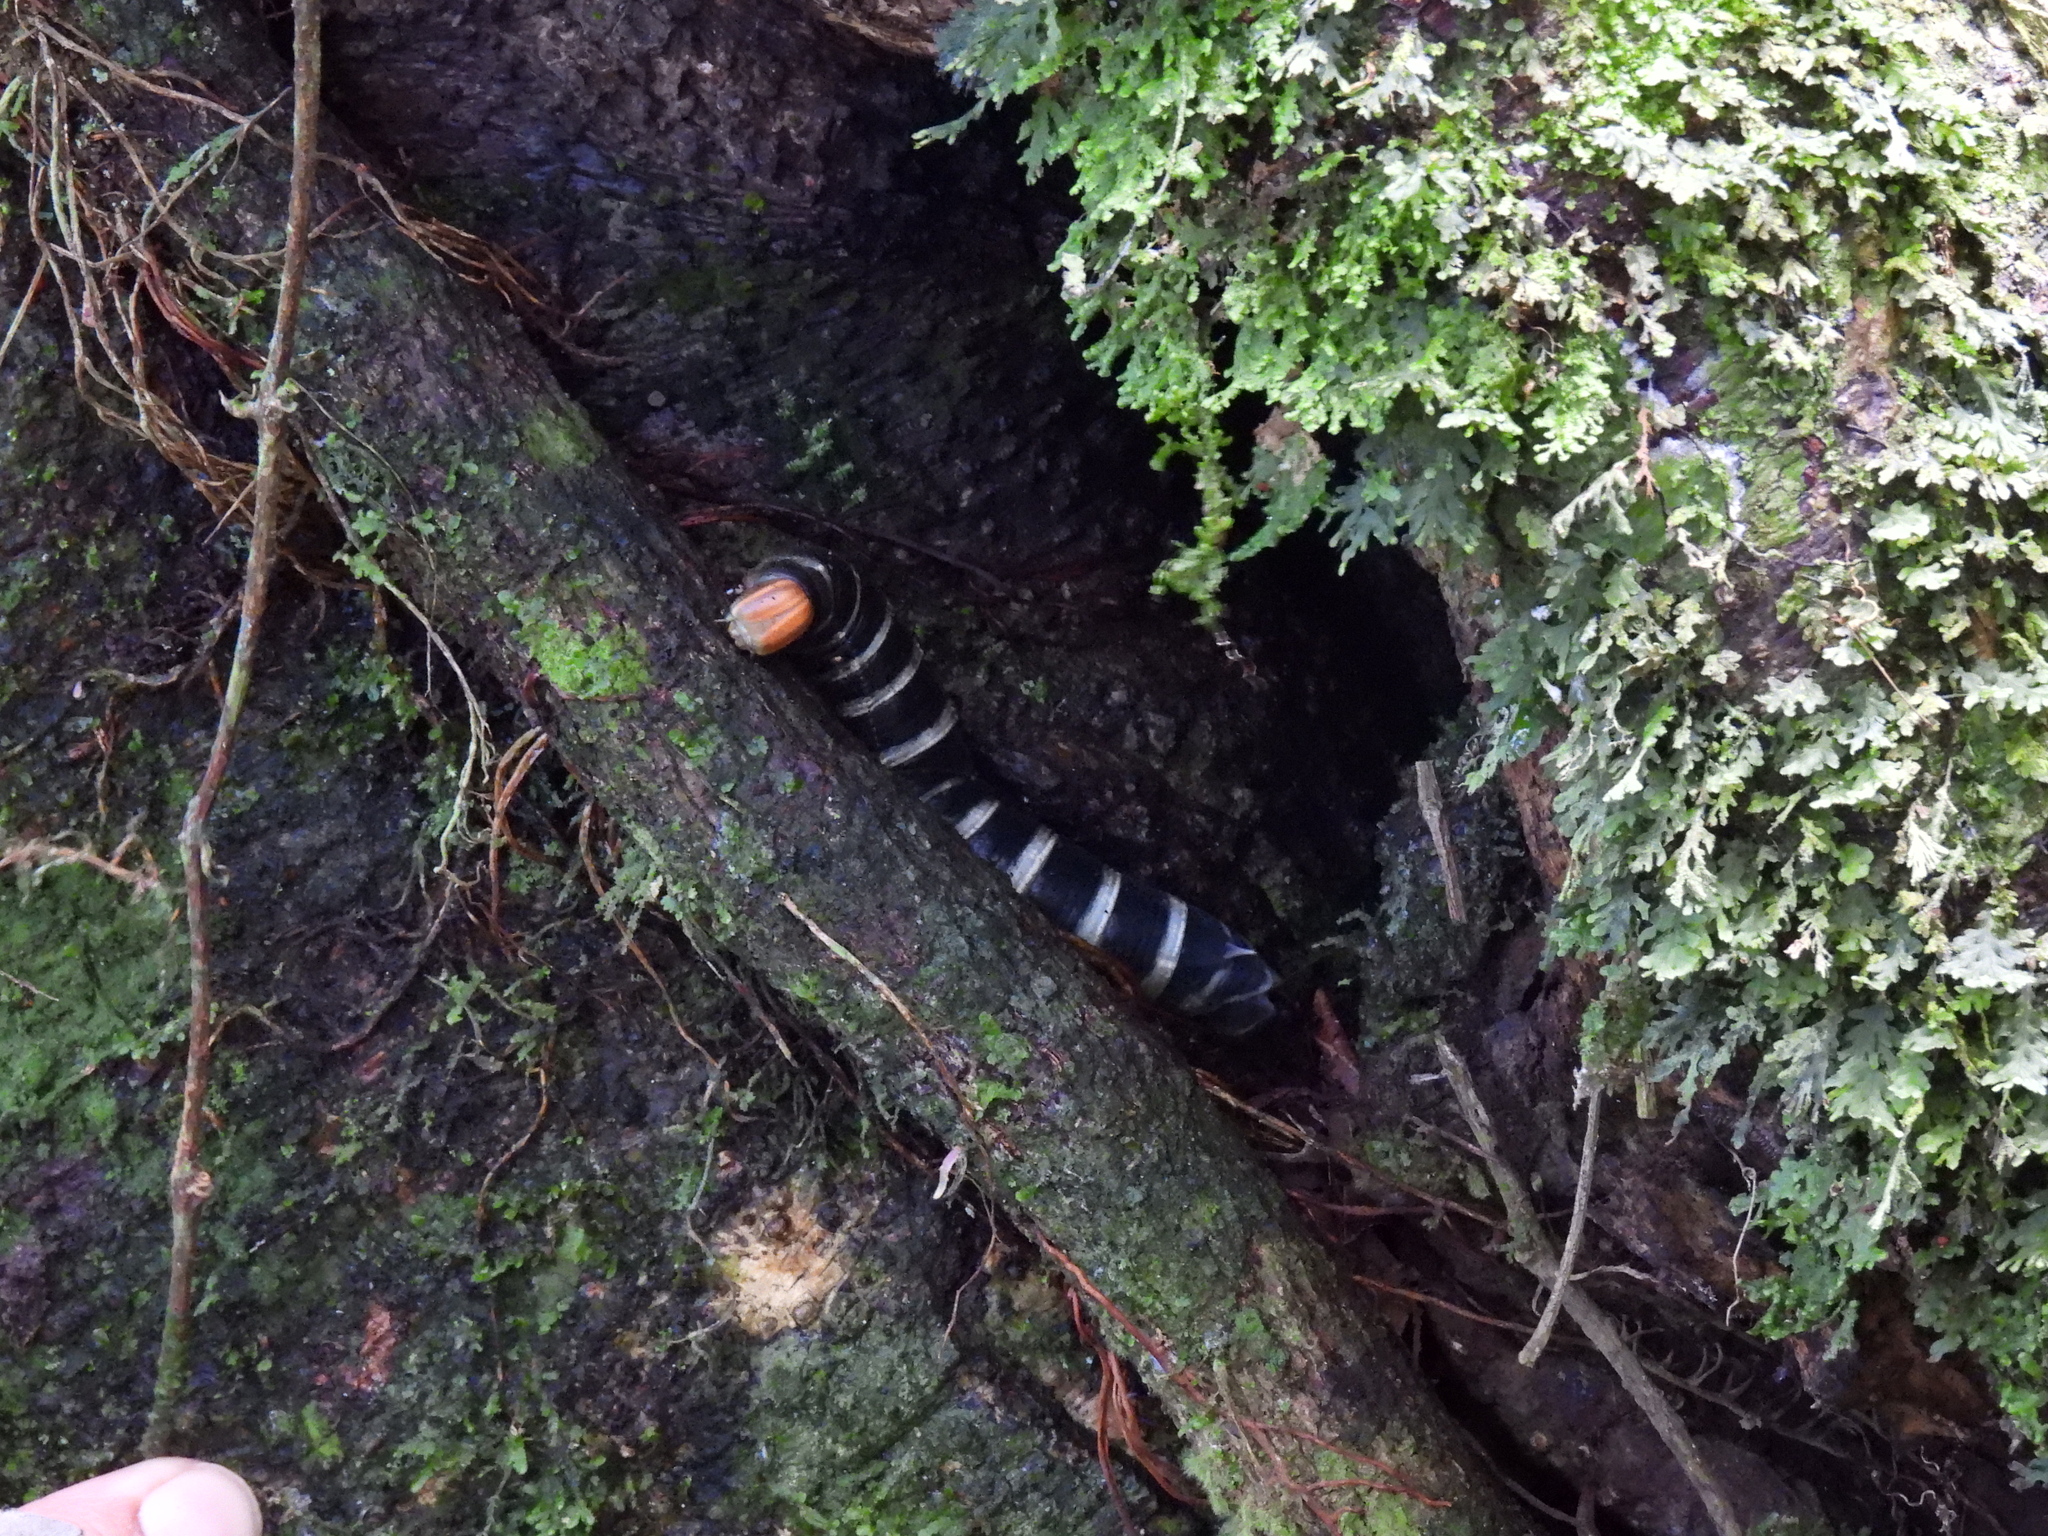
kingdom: Animalia
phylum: Arthropoda
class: Insecta
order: Lepidoptera
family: Sphingidae
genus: Pachylia
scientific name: Pachylia syces
